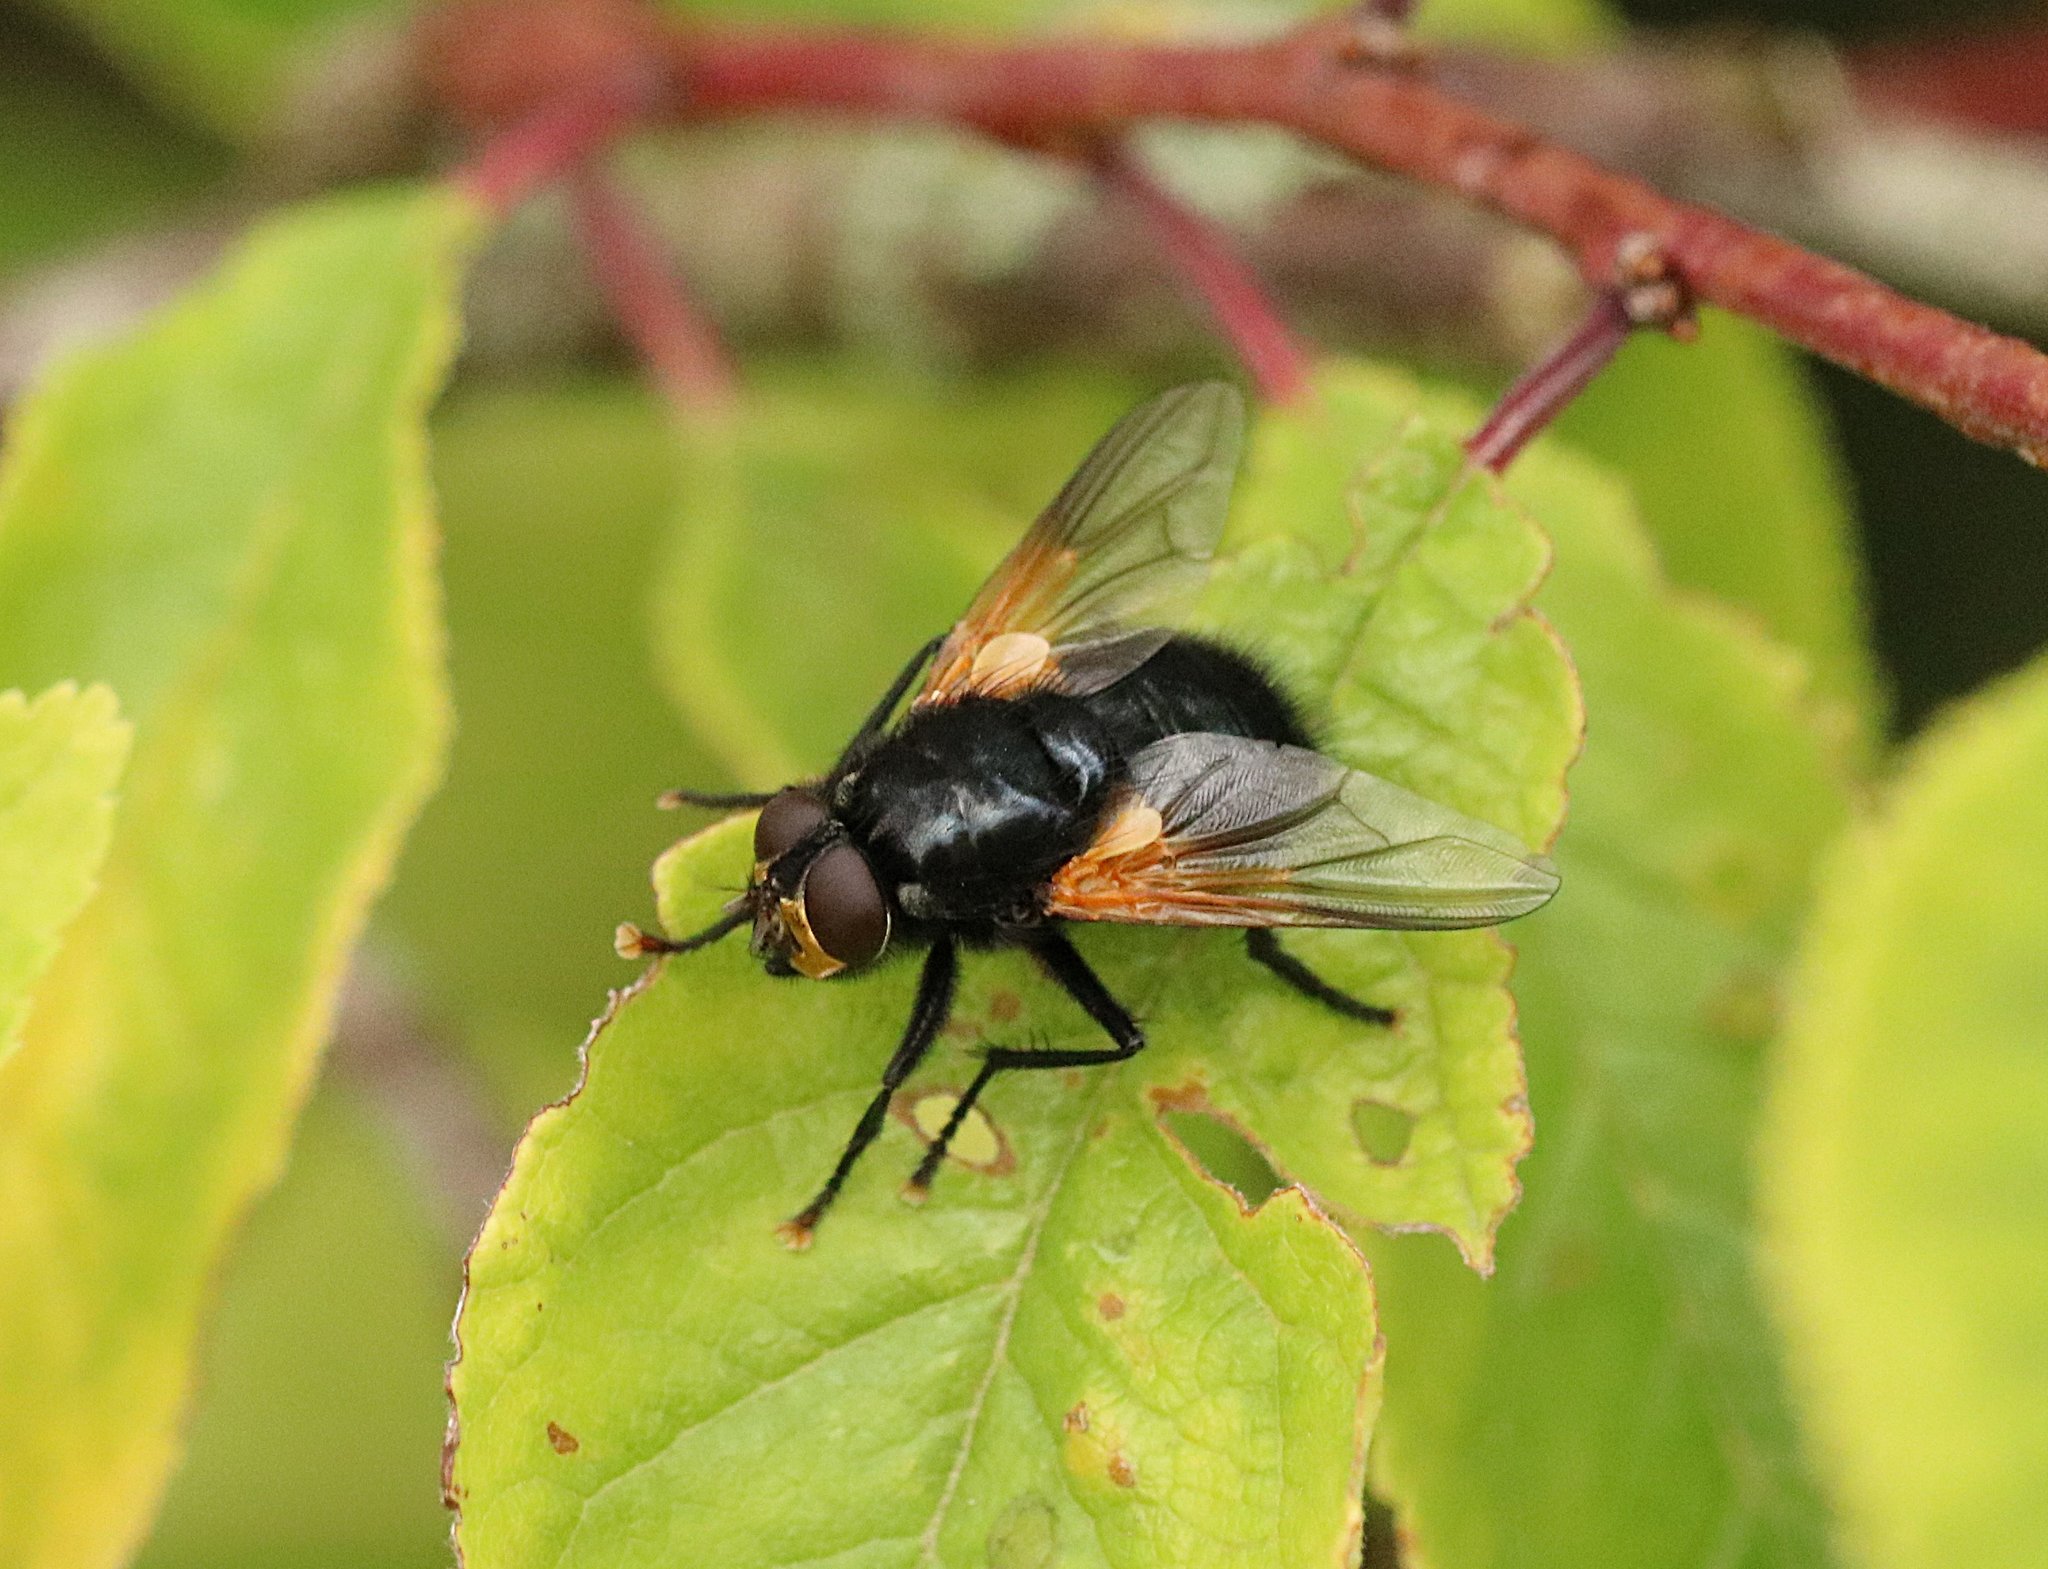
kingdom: Animalia
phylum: Arthropoda
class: Insecta
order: Diptera
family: Muscidae
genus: Mesembrina
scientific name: Mesembrina meridiana
